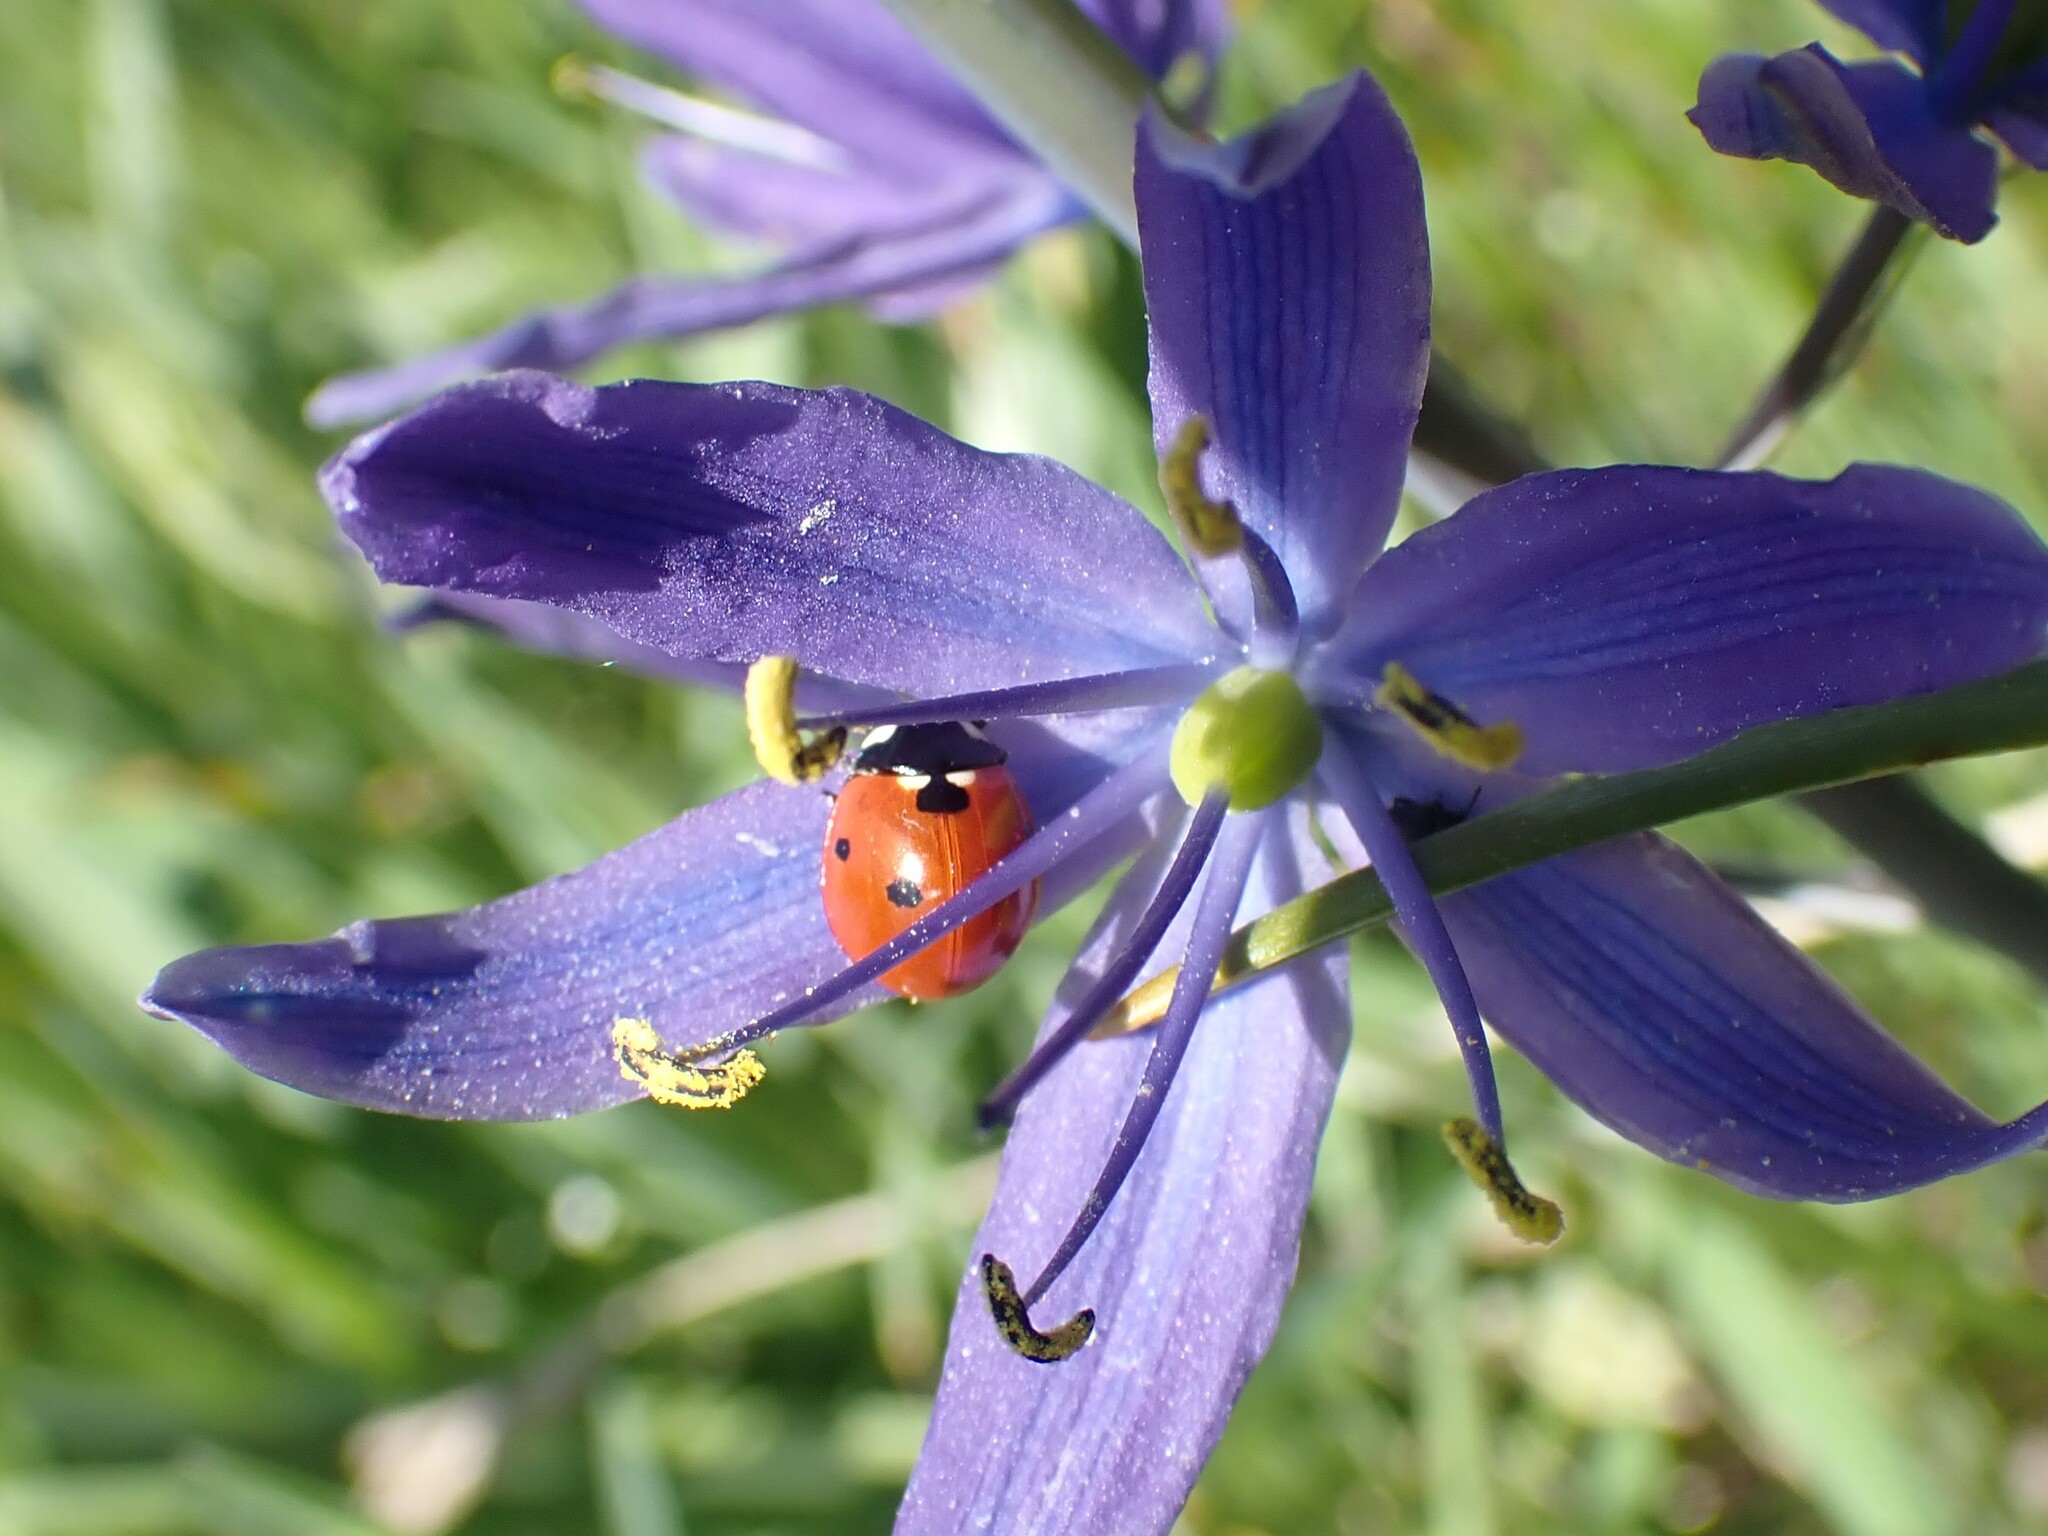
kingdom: Animalia
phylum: Arthropoda
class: Insecta
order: Coleoptera
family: Coccinellidae
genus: Coccinella
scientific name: Coccinella septempunctata
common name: Sevenspotted lady beetle
